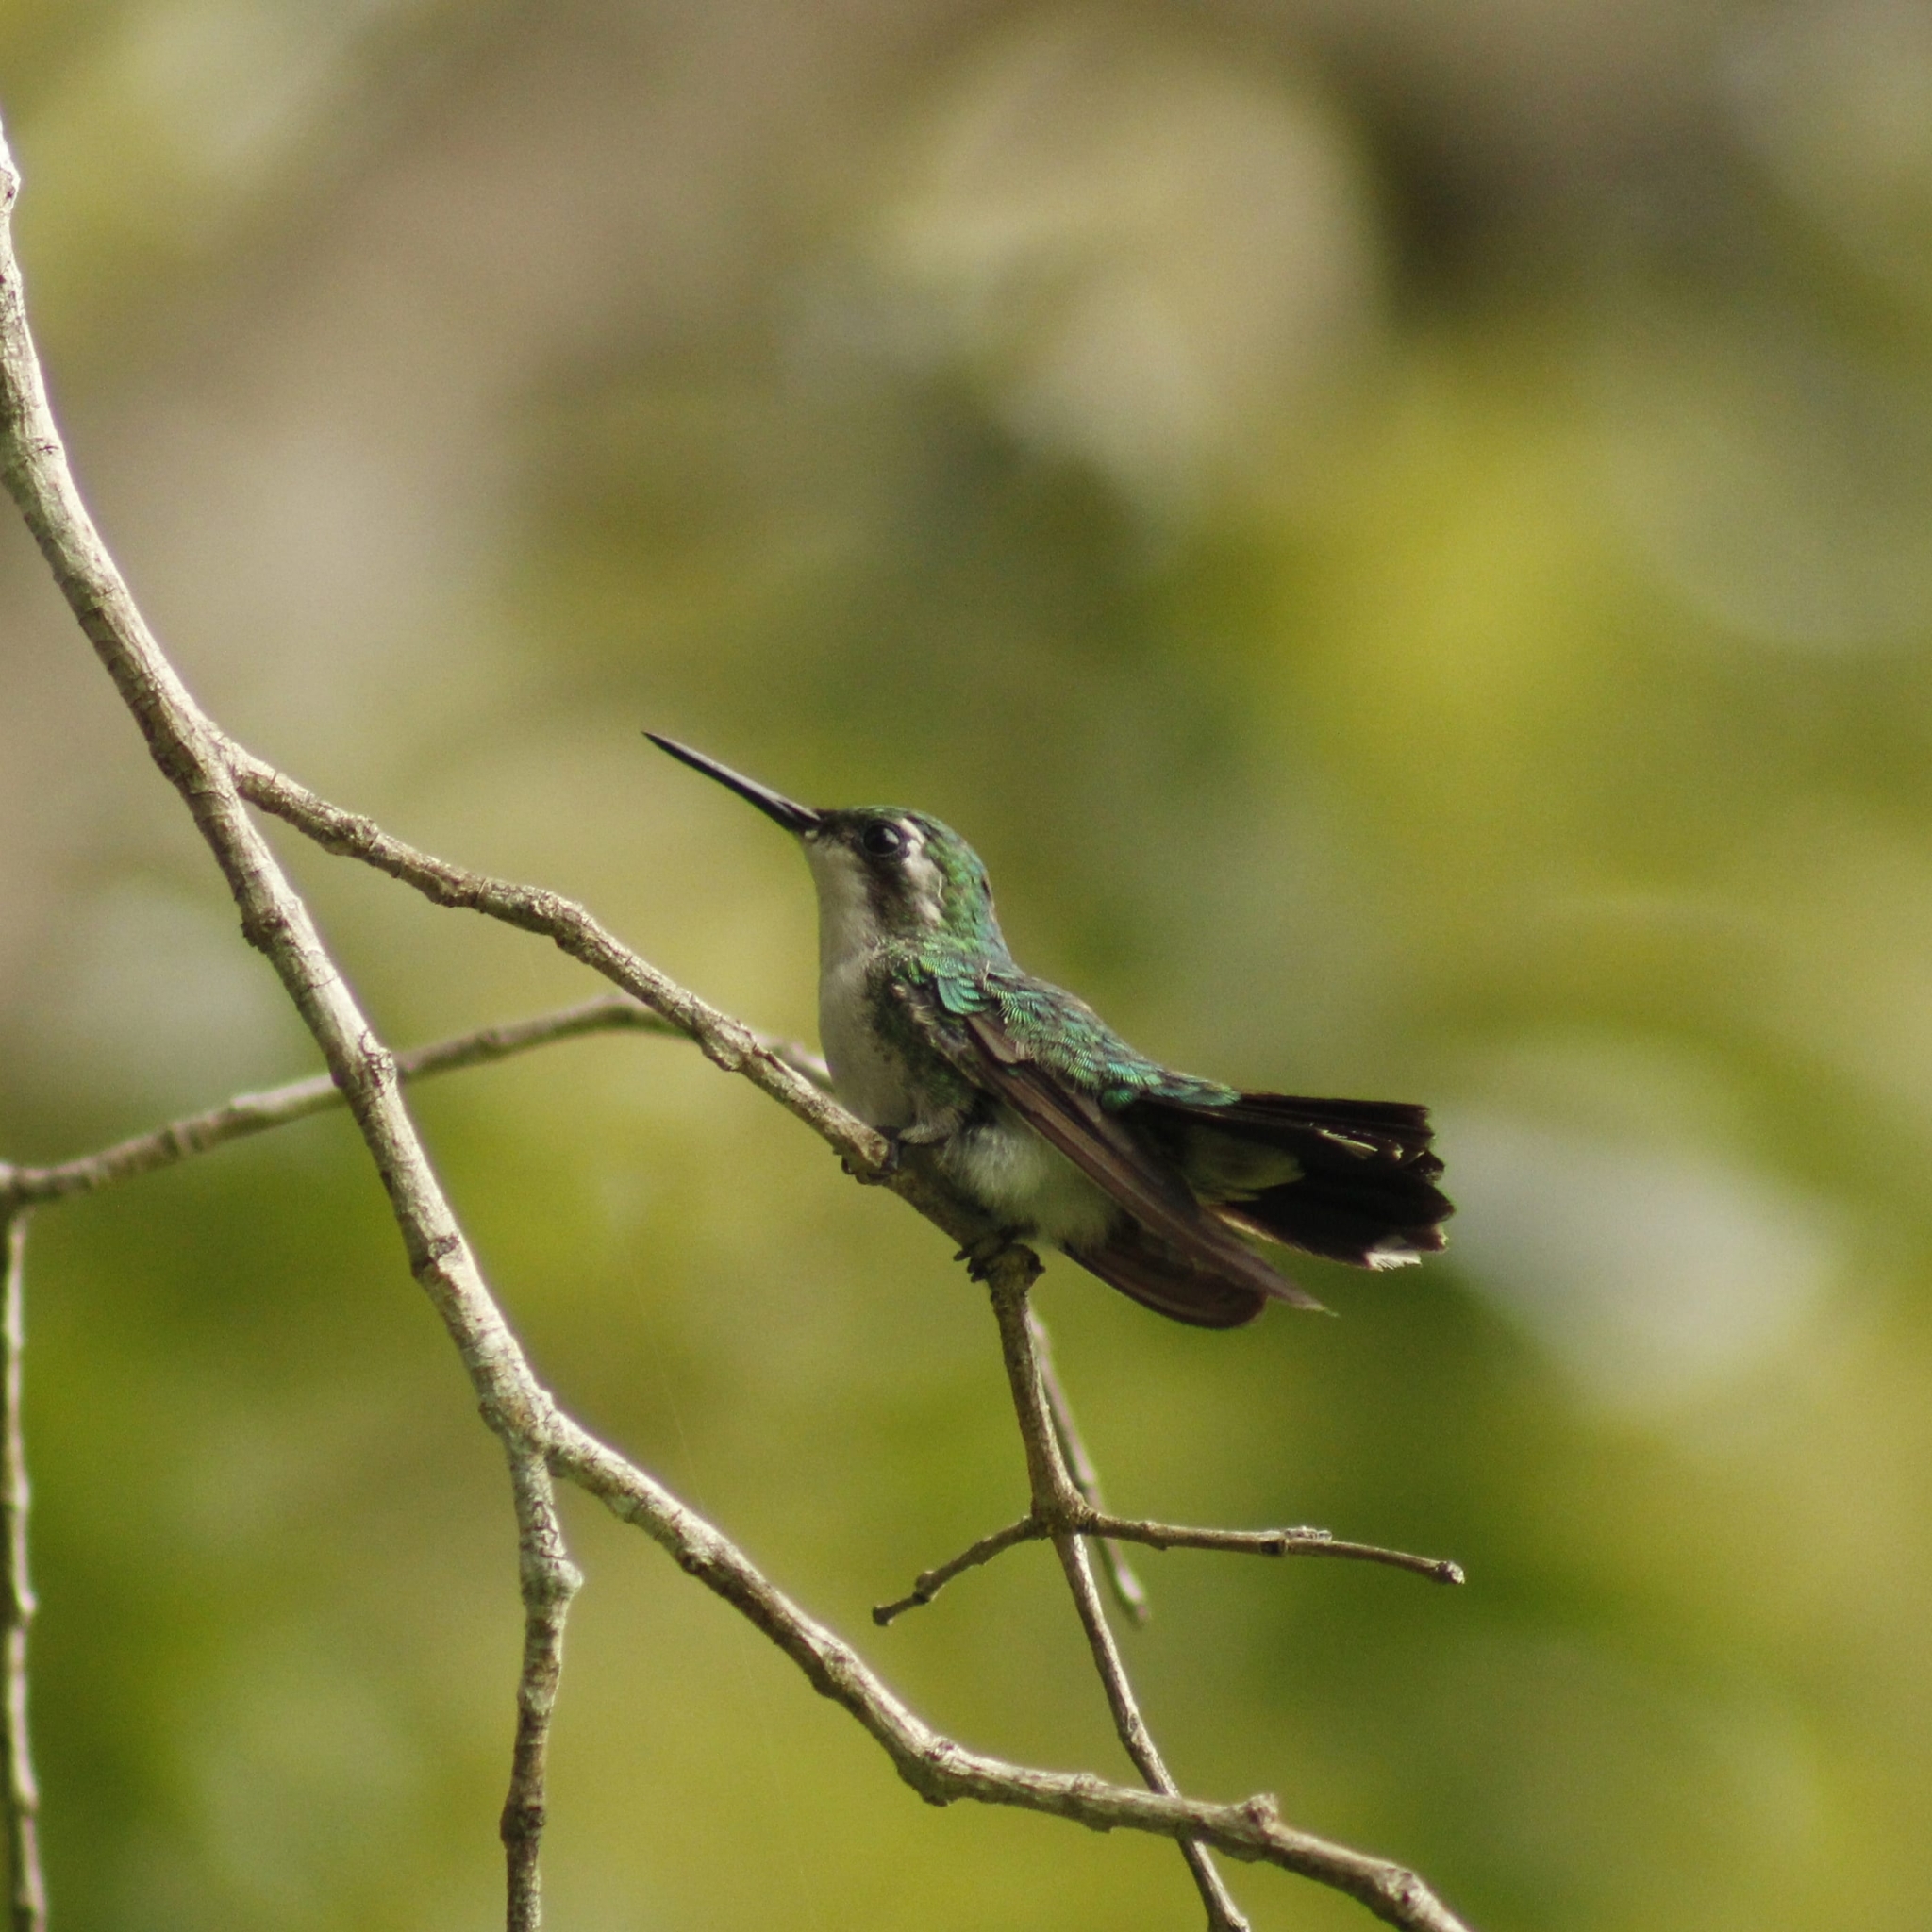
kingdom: Animalia
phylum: Chordata
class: Aves
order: Apodiformes
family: Trochilidae
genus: Chlorostilbon
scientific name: Chlorostilbon assimilis
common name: Garden emerald
